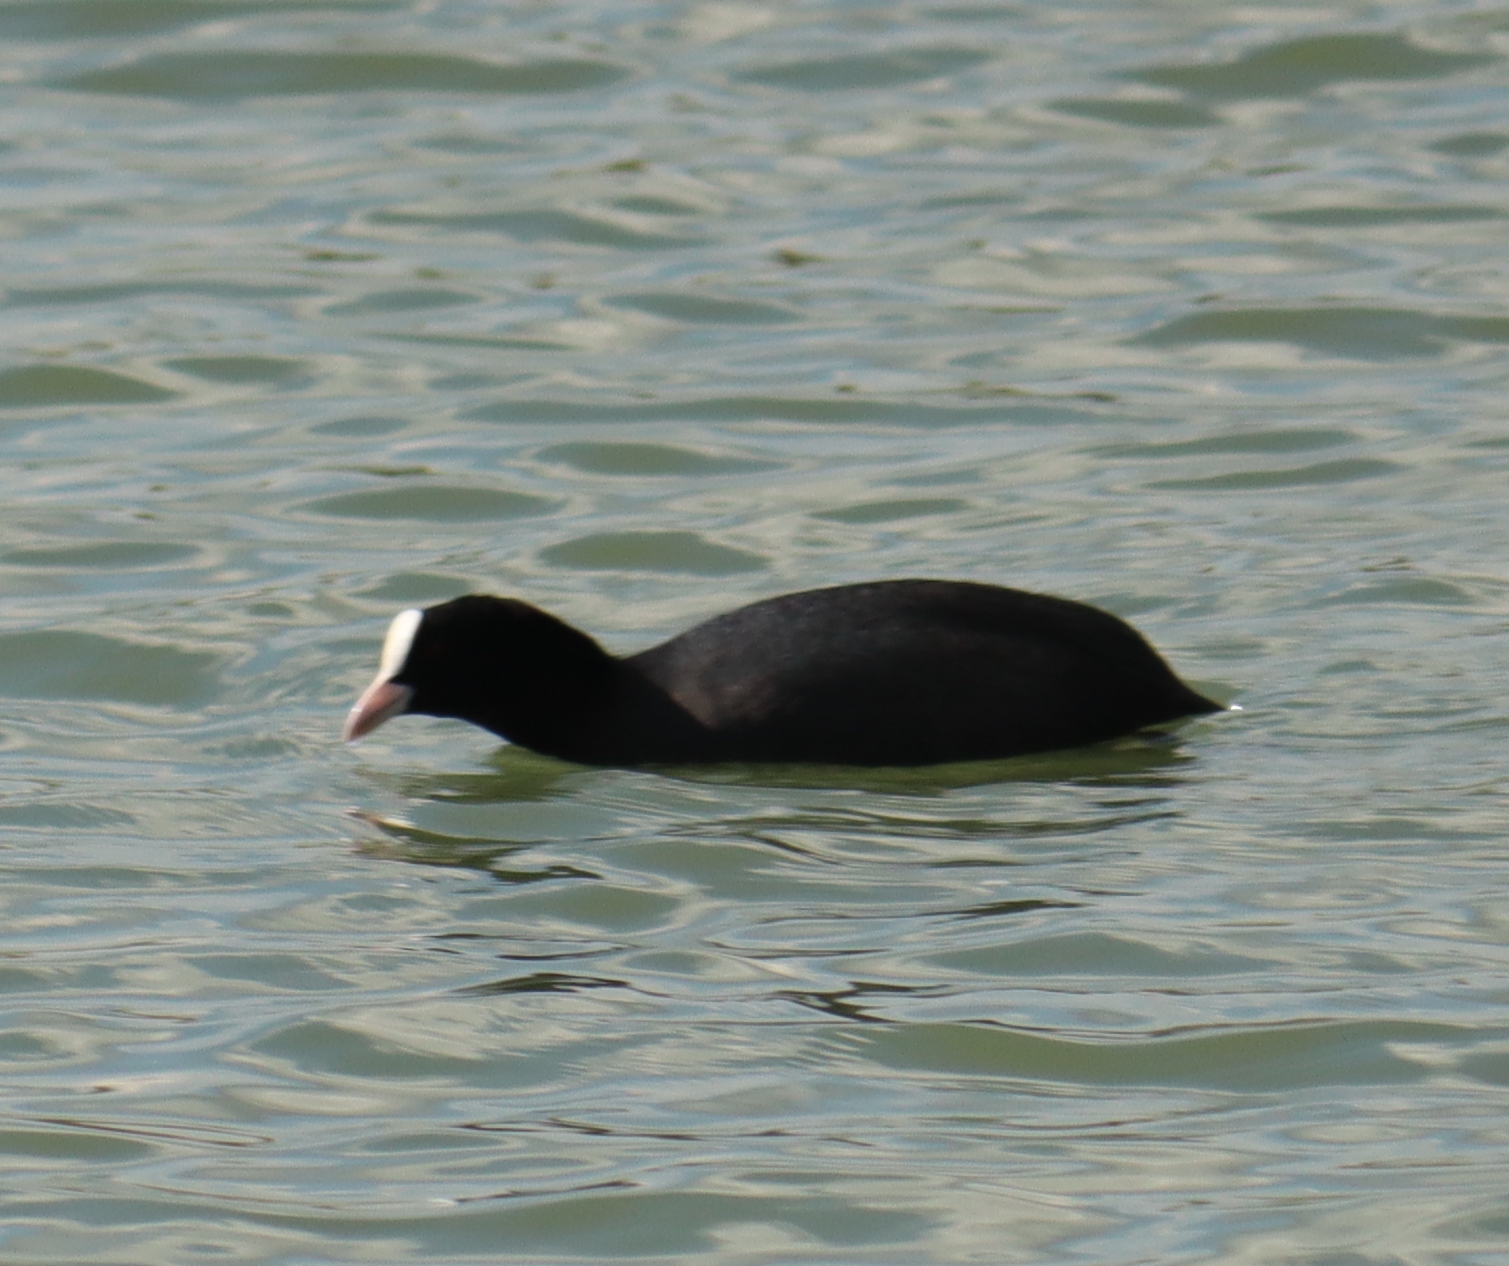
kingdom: Animalia
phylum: Chordata
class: Aves
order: Gruiformes
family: Rallidae
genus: Fulica
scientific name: Fulica atra
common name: Eurasian coot
